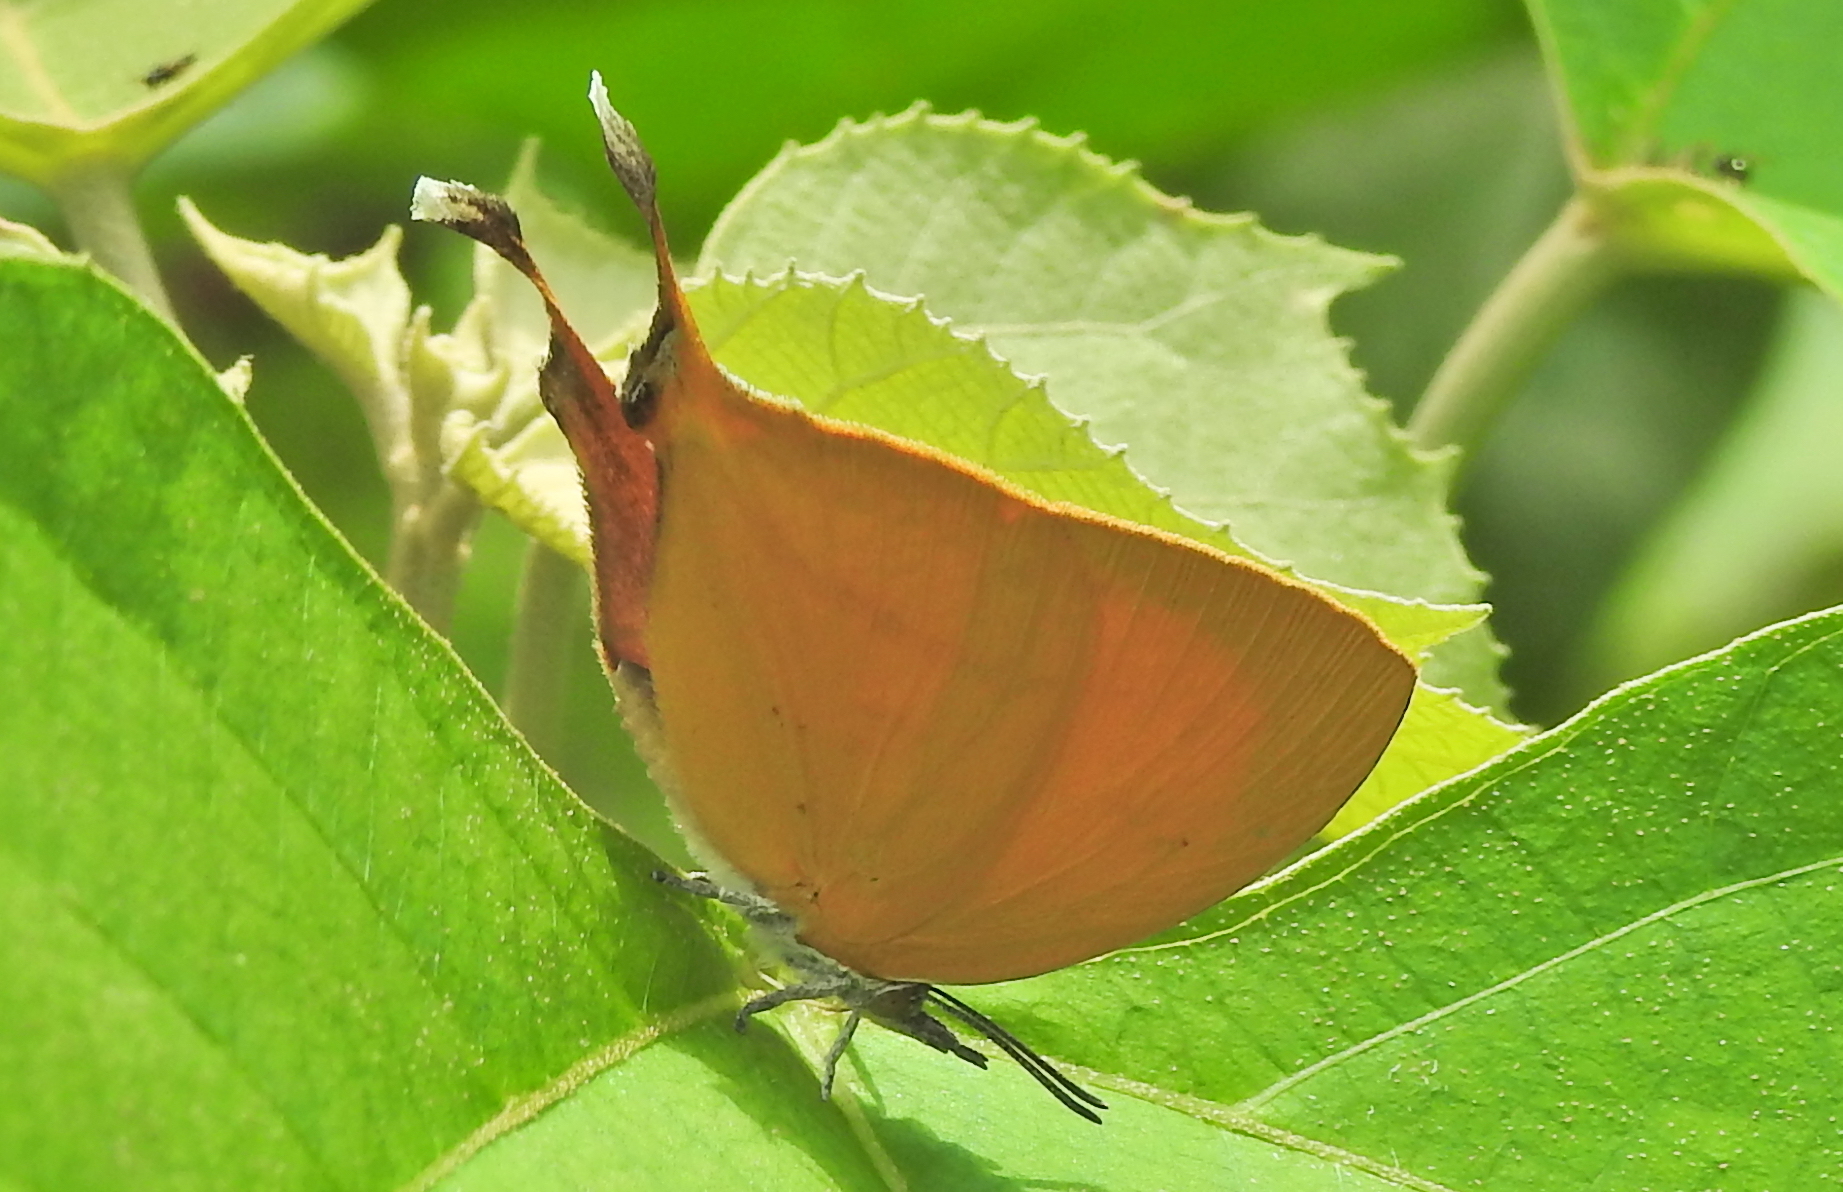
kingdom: Animalia
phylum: Arthropoda
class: Insecta
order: Lepidoptera
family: Lycaenidae
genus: Loxura
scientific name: Loxura atymnus
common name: Common yamfly
